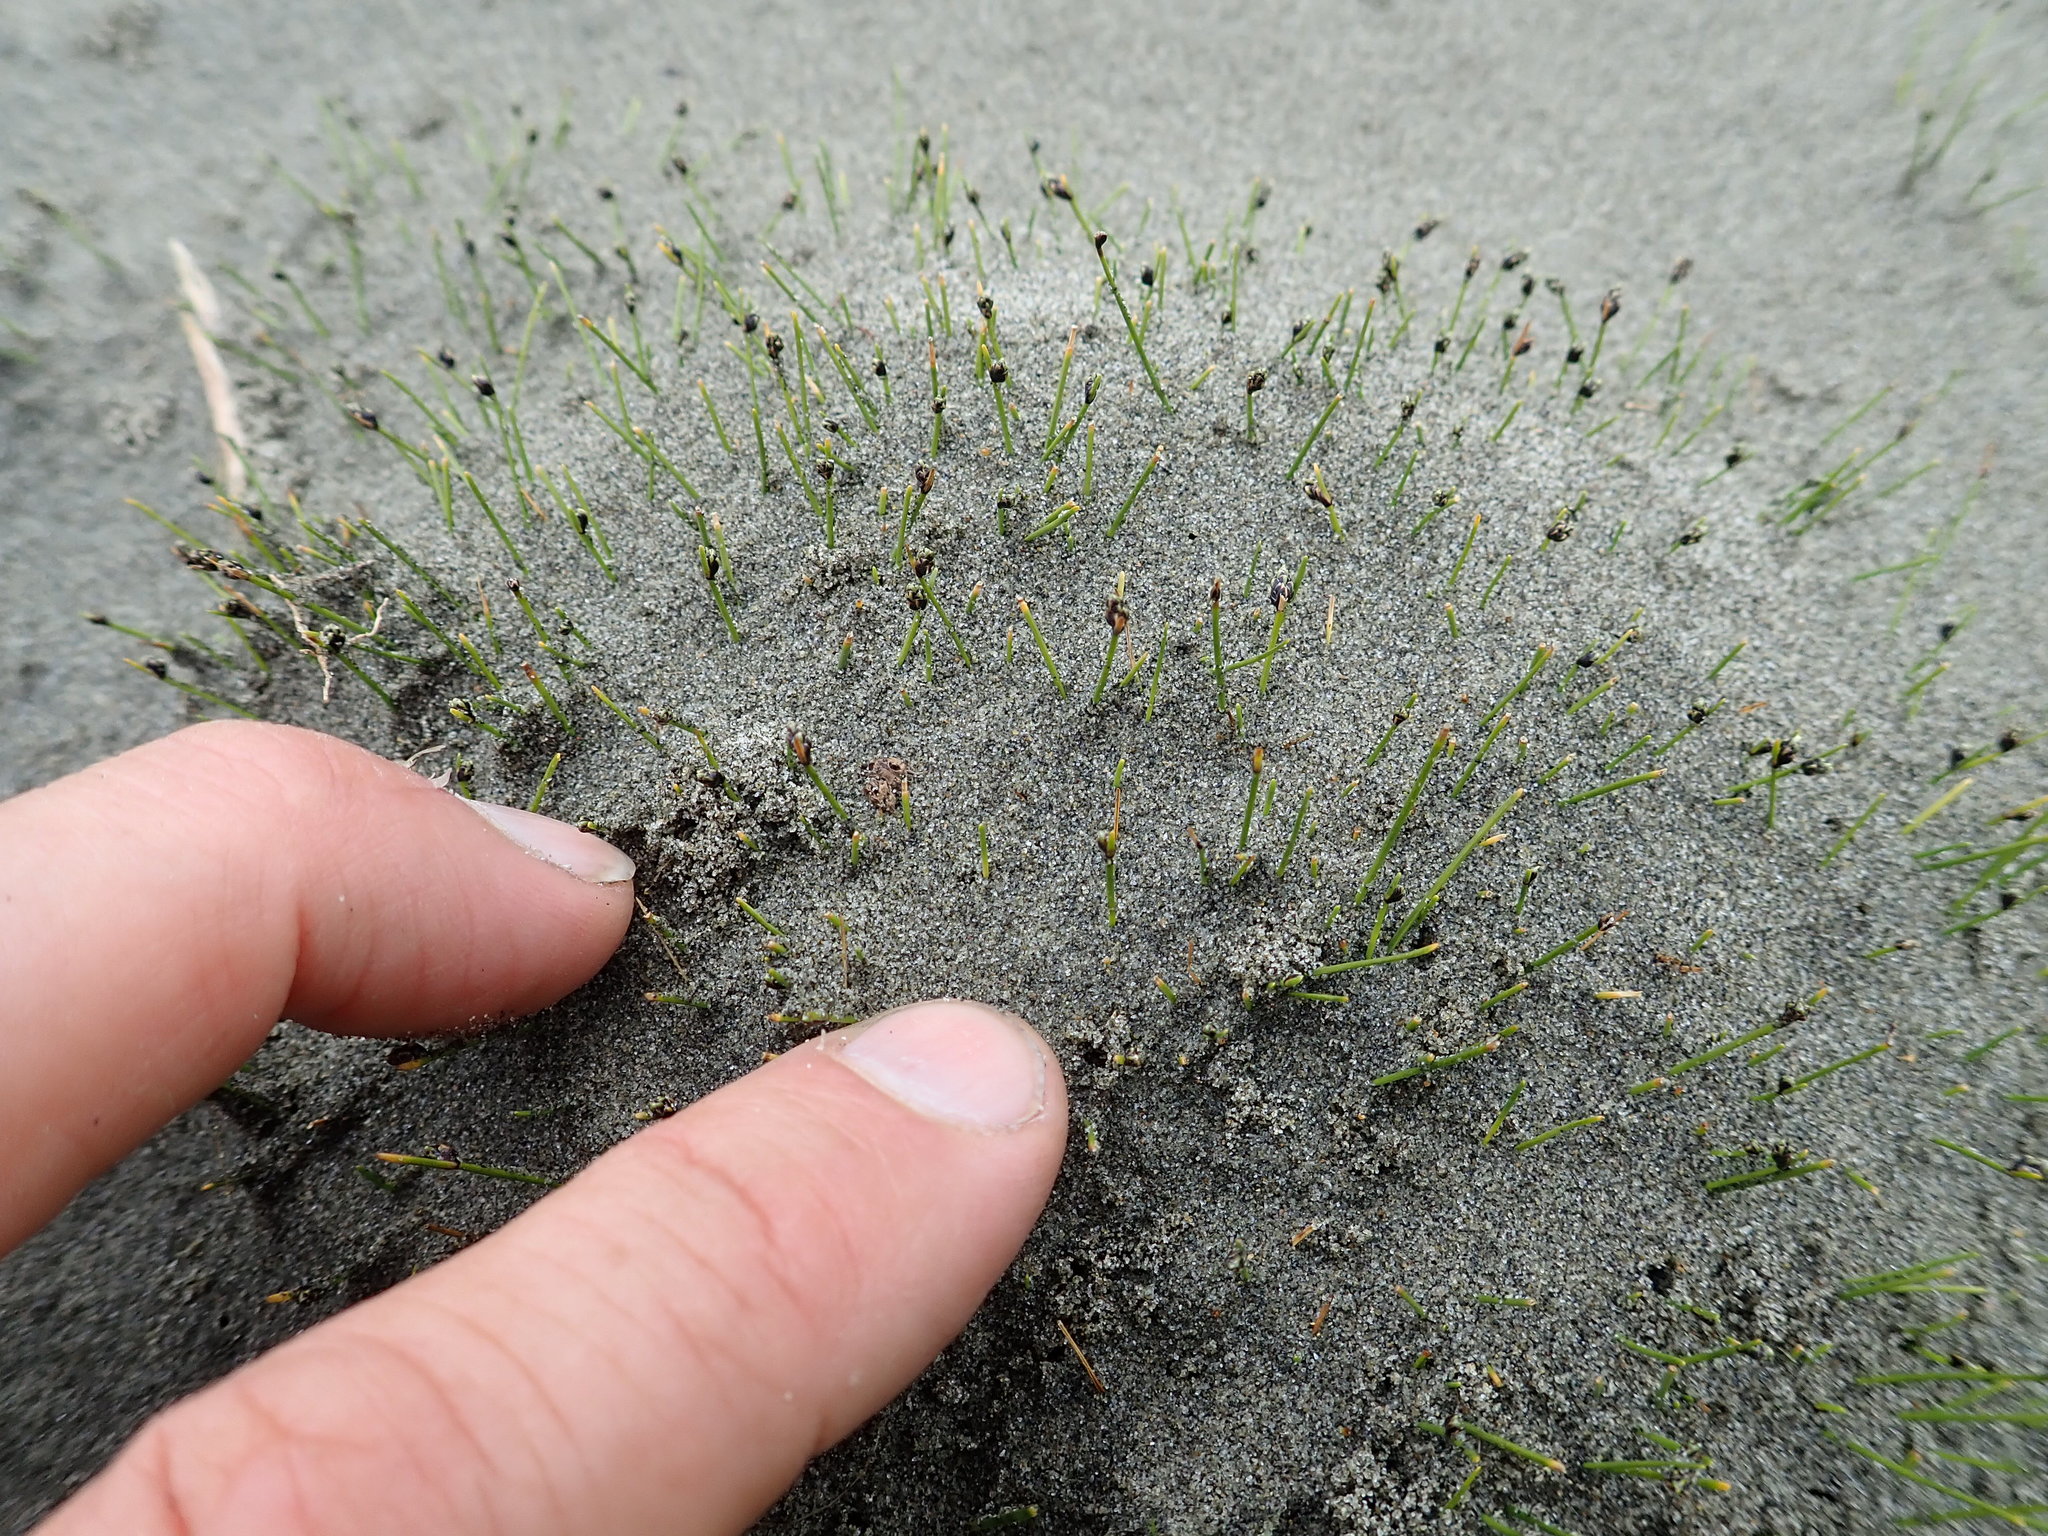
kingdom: Plantae
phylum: Tracheophyta
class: Liliopsida
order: Poales
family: Cyperaceae
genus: Isolepis
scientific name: Isolepis cernua
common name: Slender club-rush
